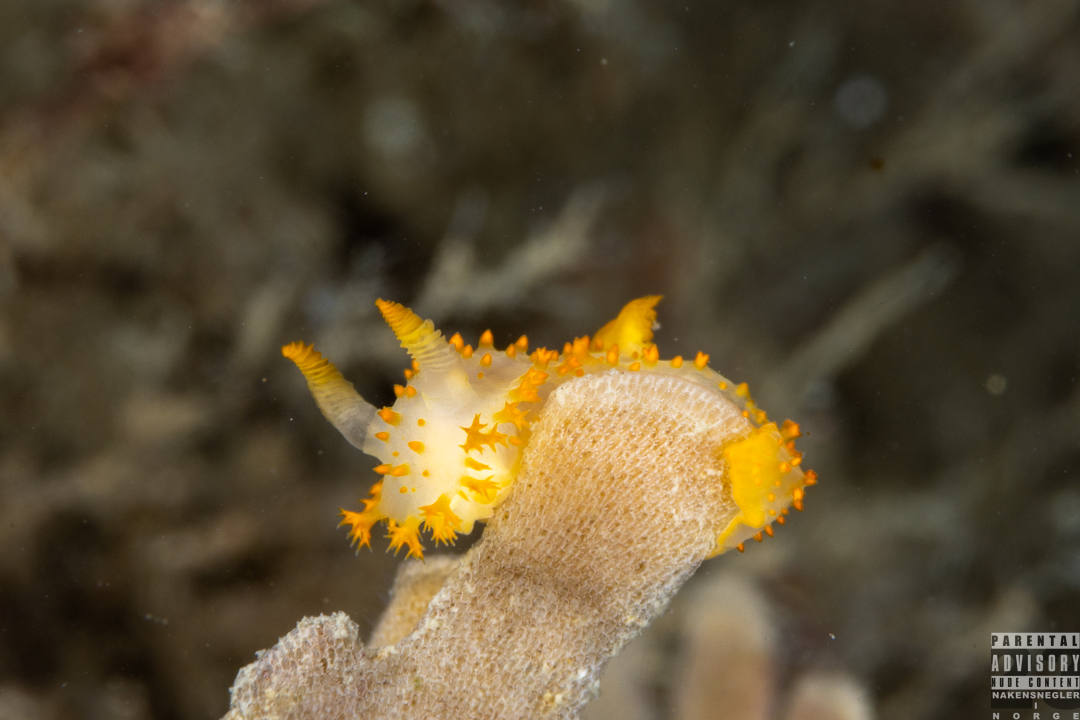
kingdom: Animalia
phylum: Mollusca
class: Gastropoda
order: Nudibranchia
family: Polyceridae
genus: Crimora
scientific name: Crimora papillata
